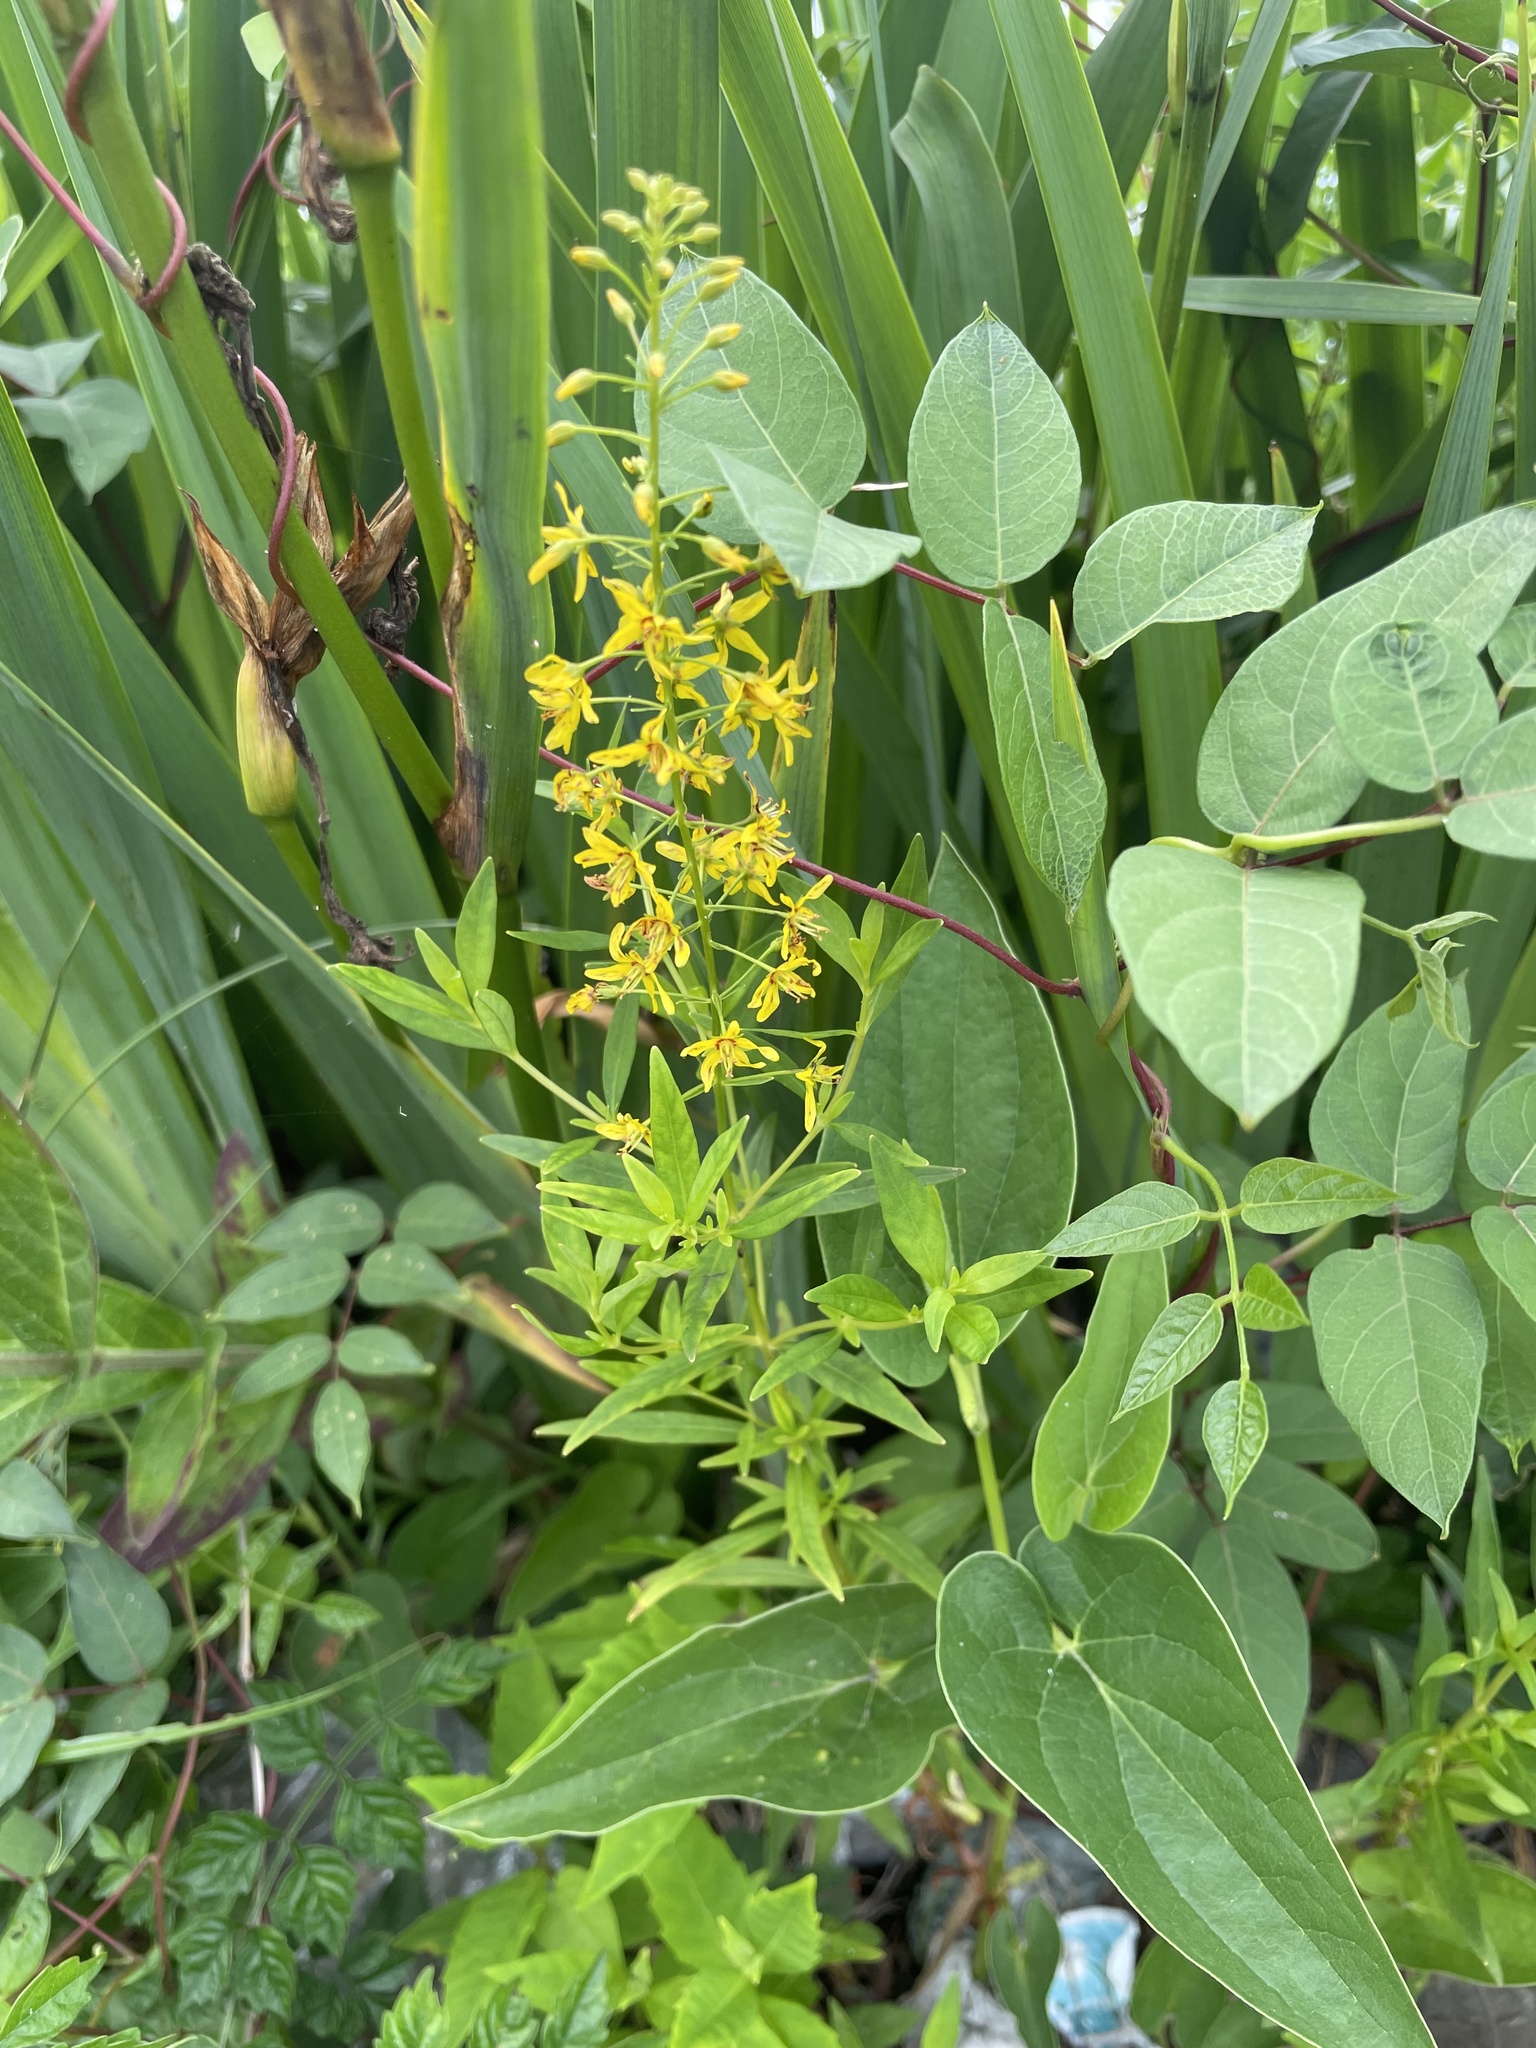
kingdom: Plantae
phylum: Tracheophyta
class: Magnoliopsida
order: Ericales
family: Primulaceae
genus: Lysimachia
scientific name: Lysimachia terrestris
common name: Lake loosestrife
